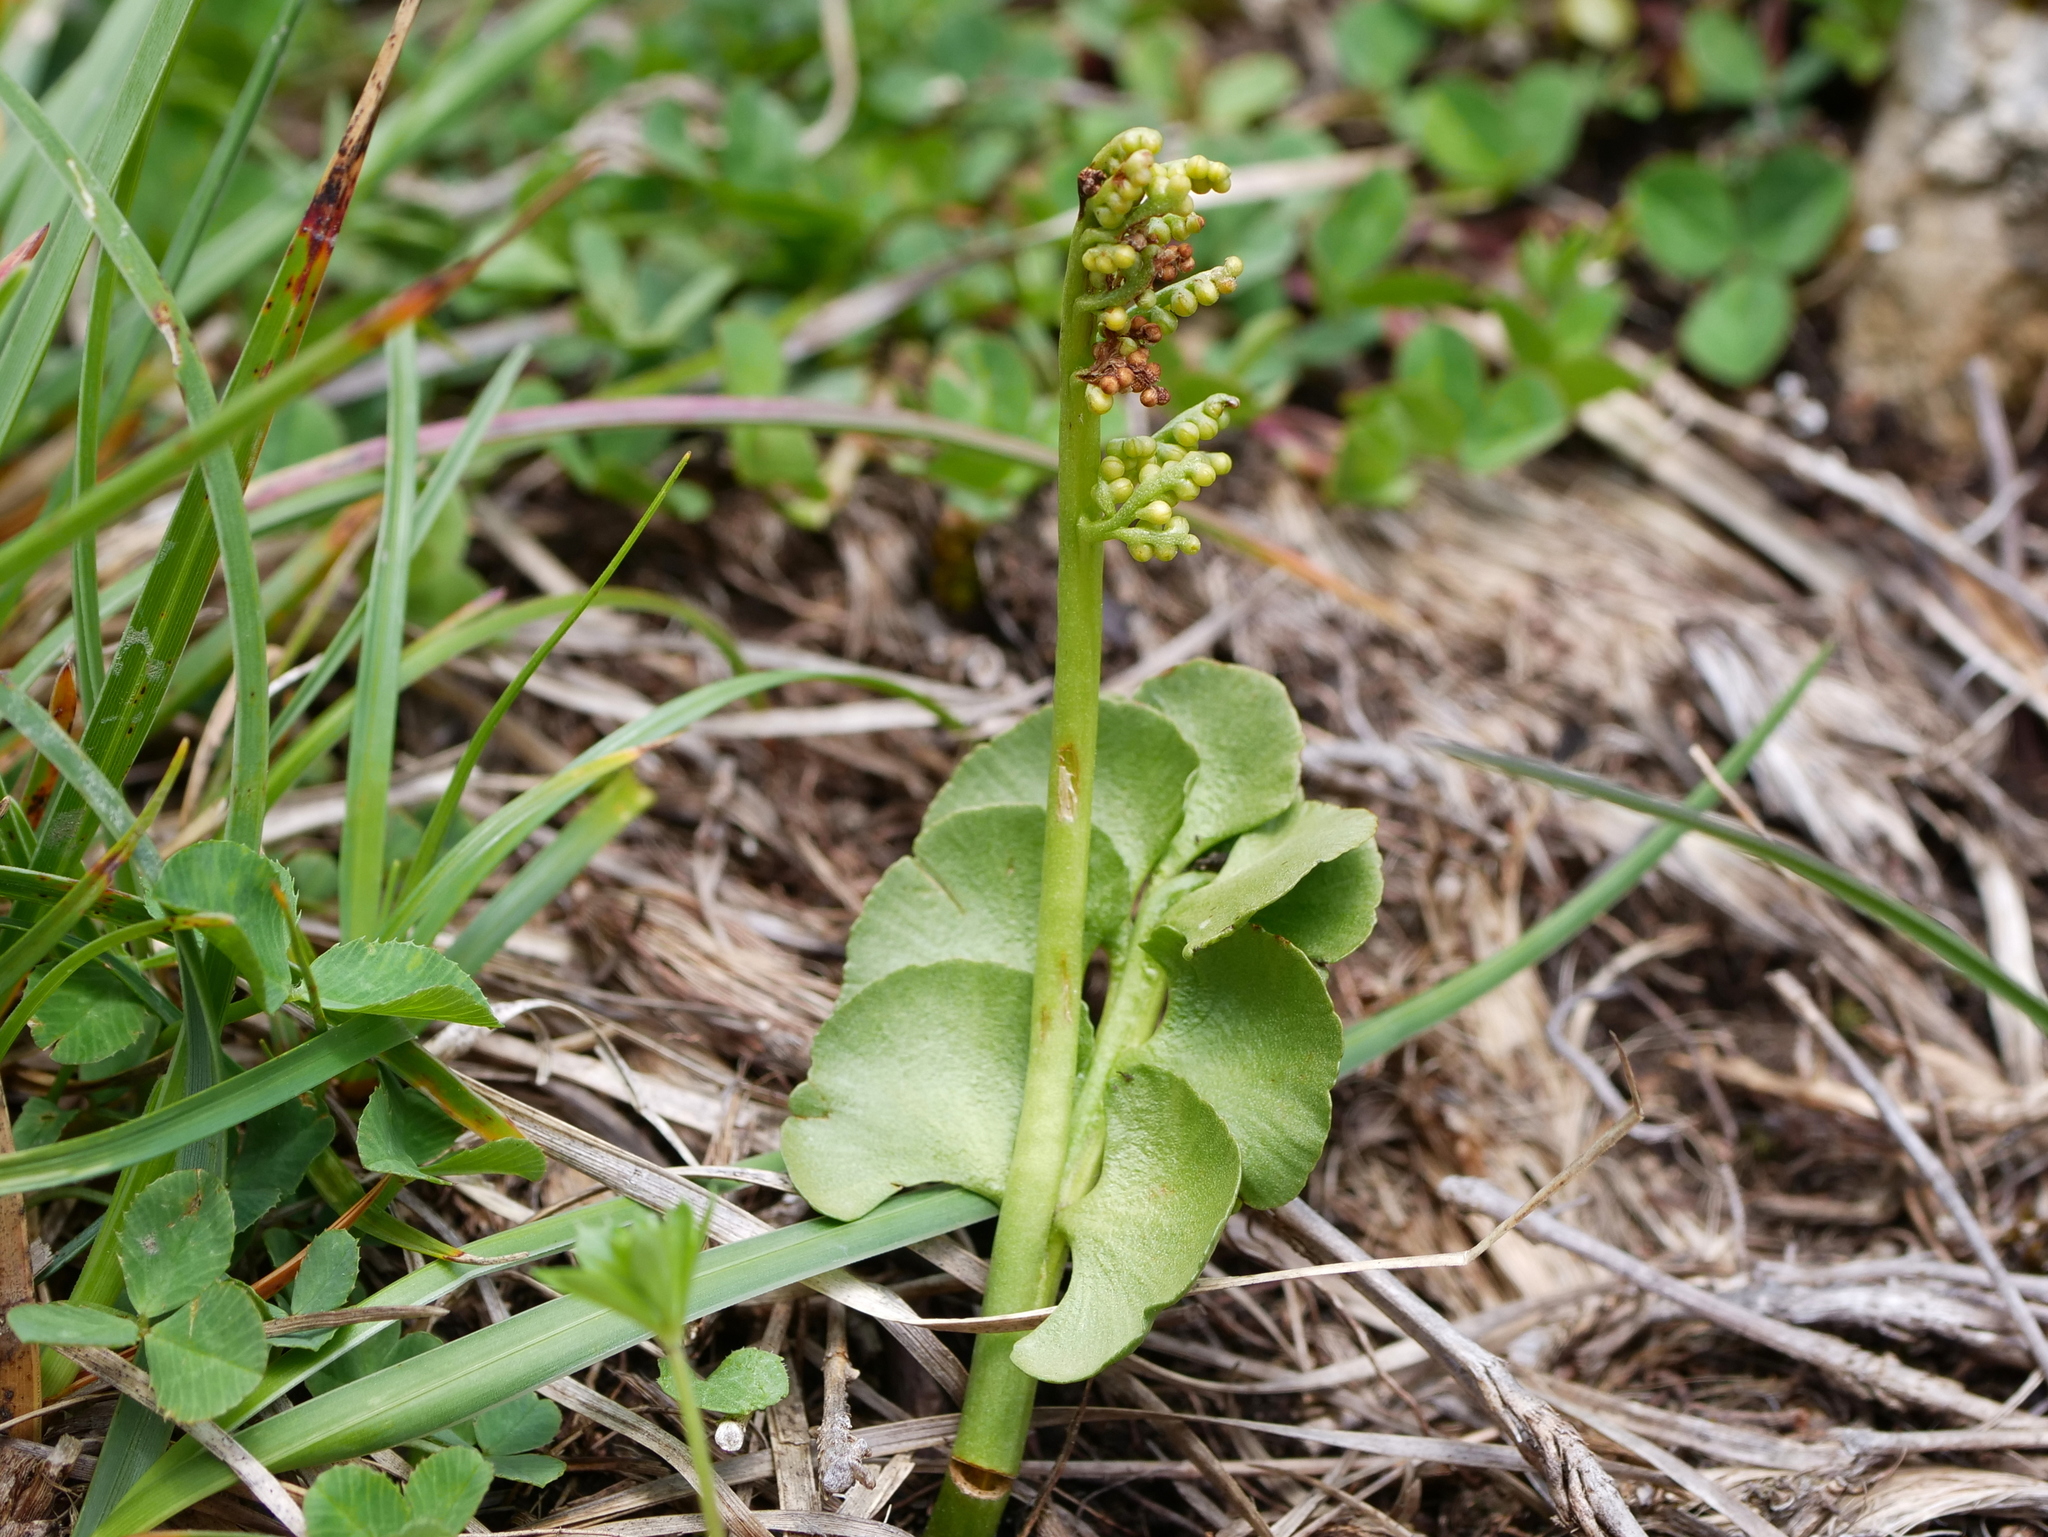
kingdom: Plantae
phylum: Tracheophyta
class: Polypodiopsida
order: Ophioglossales
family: Ophioglossaceae
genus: Botrychium
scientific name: Botrychium lunaria
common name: Moonwort
